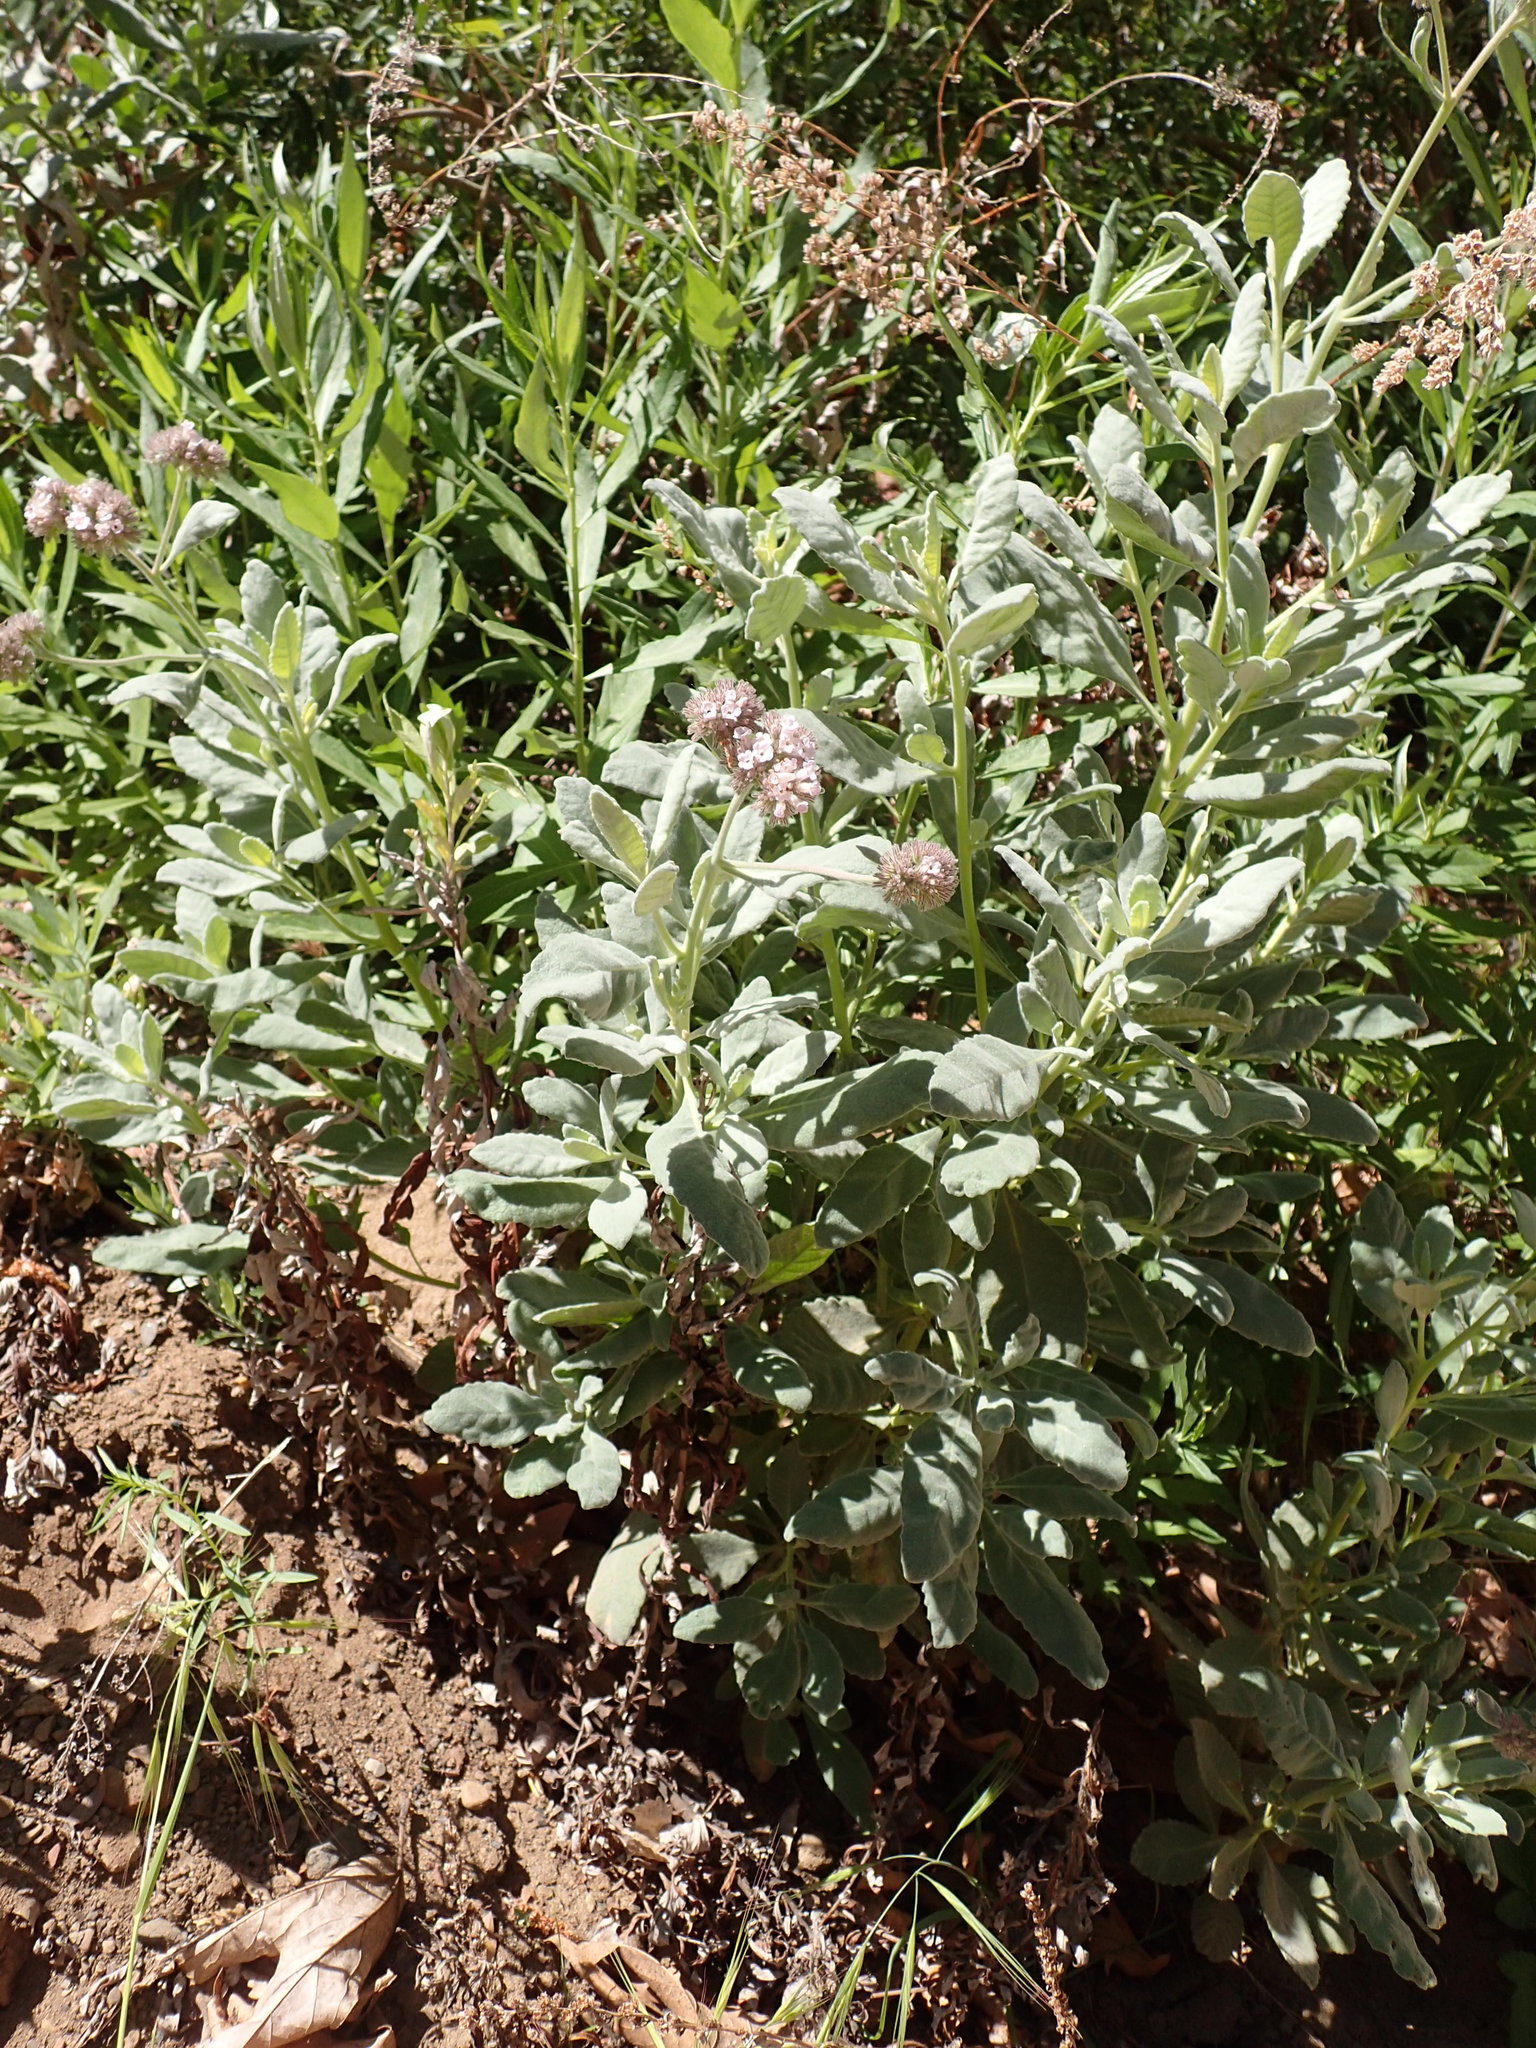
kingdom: Plantae
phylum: Tracheophyta
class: Magnoliopsida
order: Boraginales
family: Namaceae
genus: Eriodictyon
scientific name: Eriodictyon traskiae
